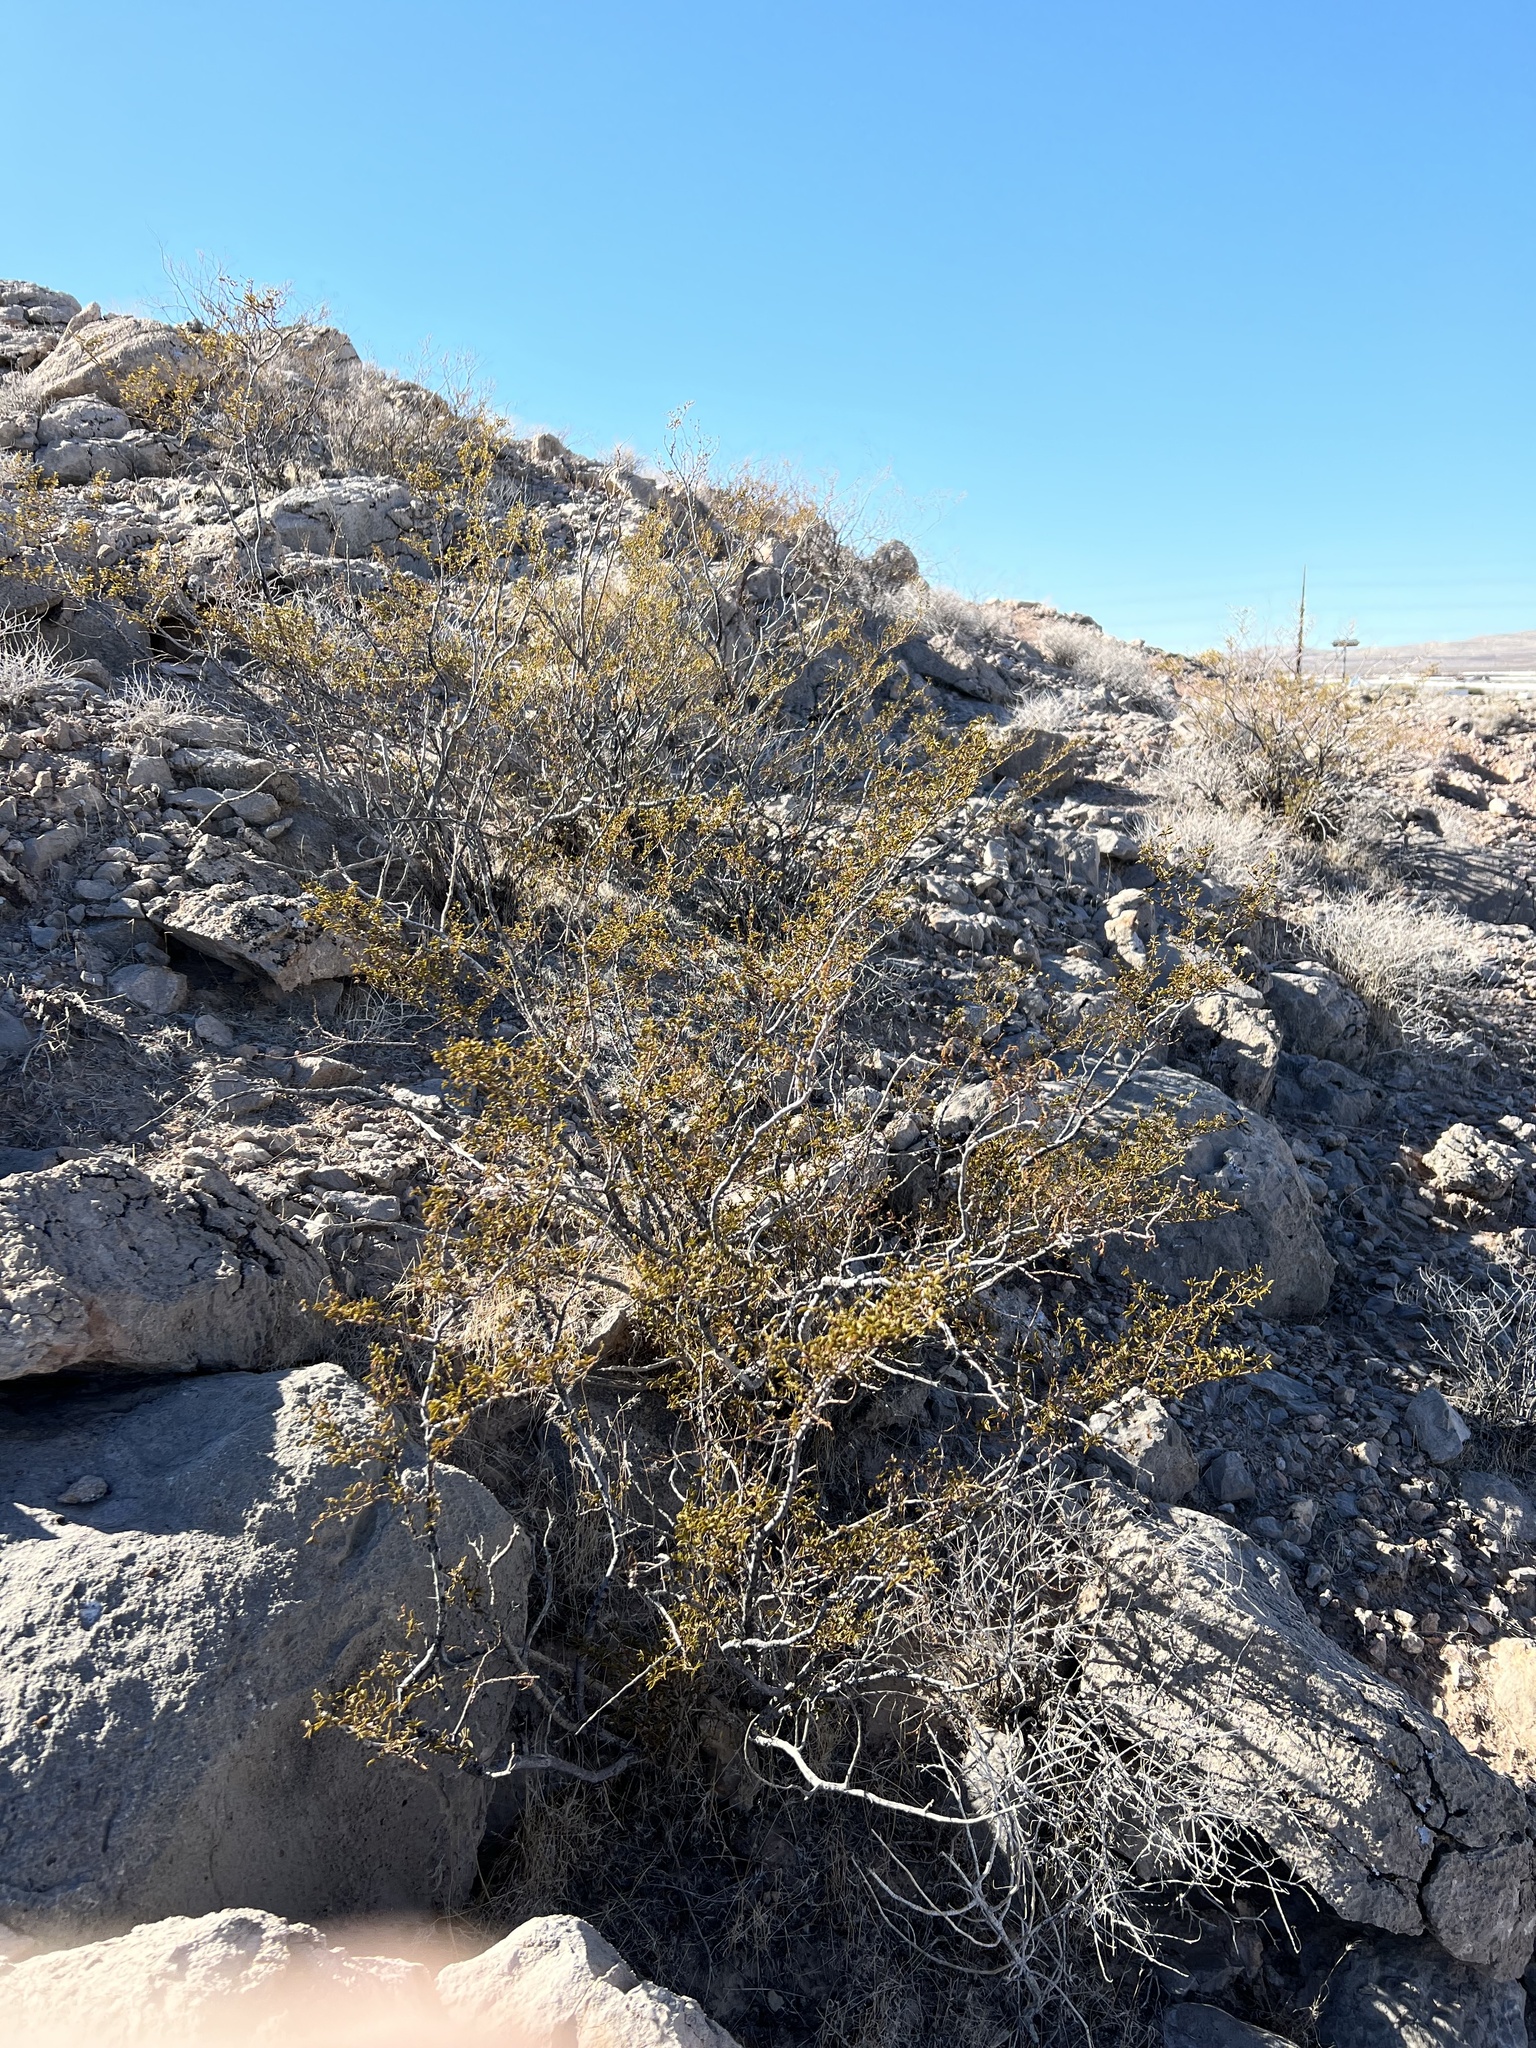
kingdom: Plantae
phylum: Tracheophyta
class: Magnoliopsida
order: Zygophyllales
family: Zygophyllaceae
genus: Larrea
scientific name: Larrea tridentata
